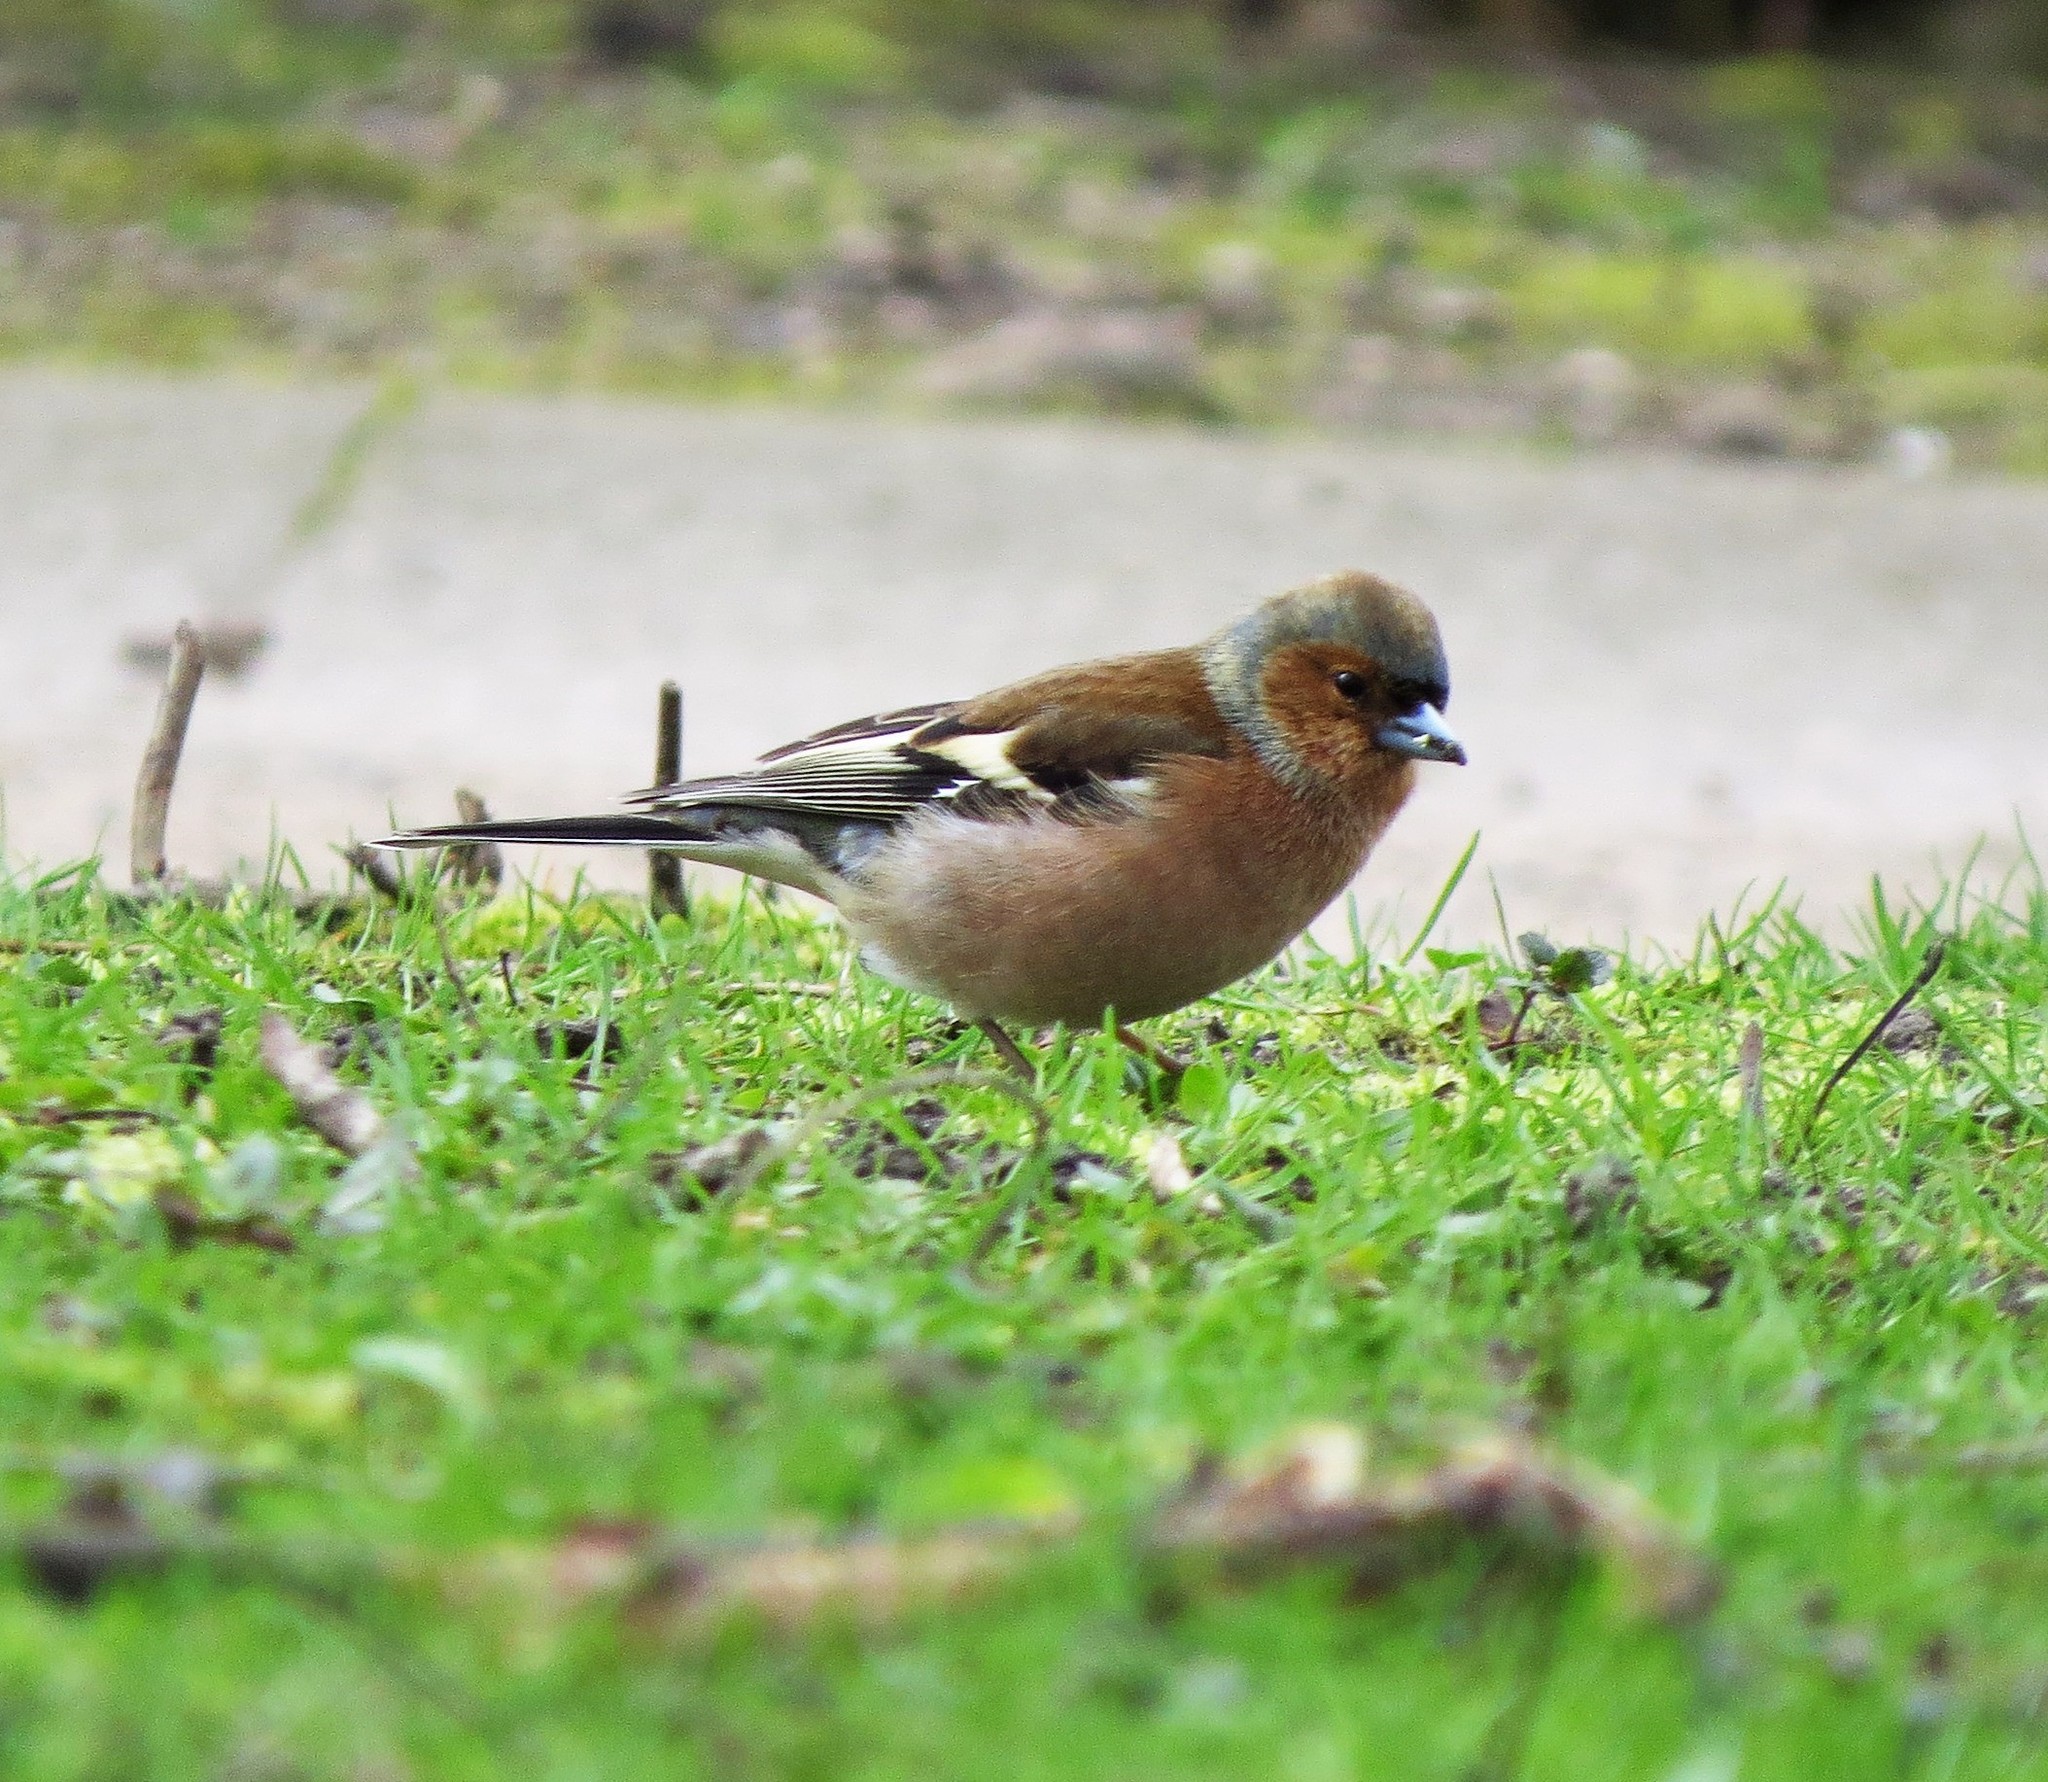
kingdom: Animalia
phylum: Chordata
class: Aves
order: Passeriformes
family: Fringillidae
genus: Fringilla
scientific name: Fringilla coelebs
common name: Common chaffinch
